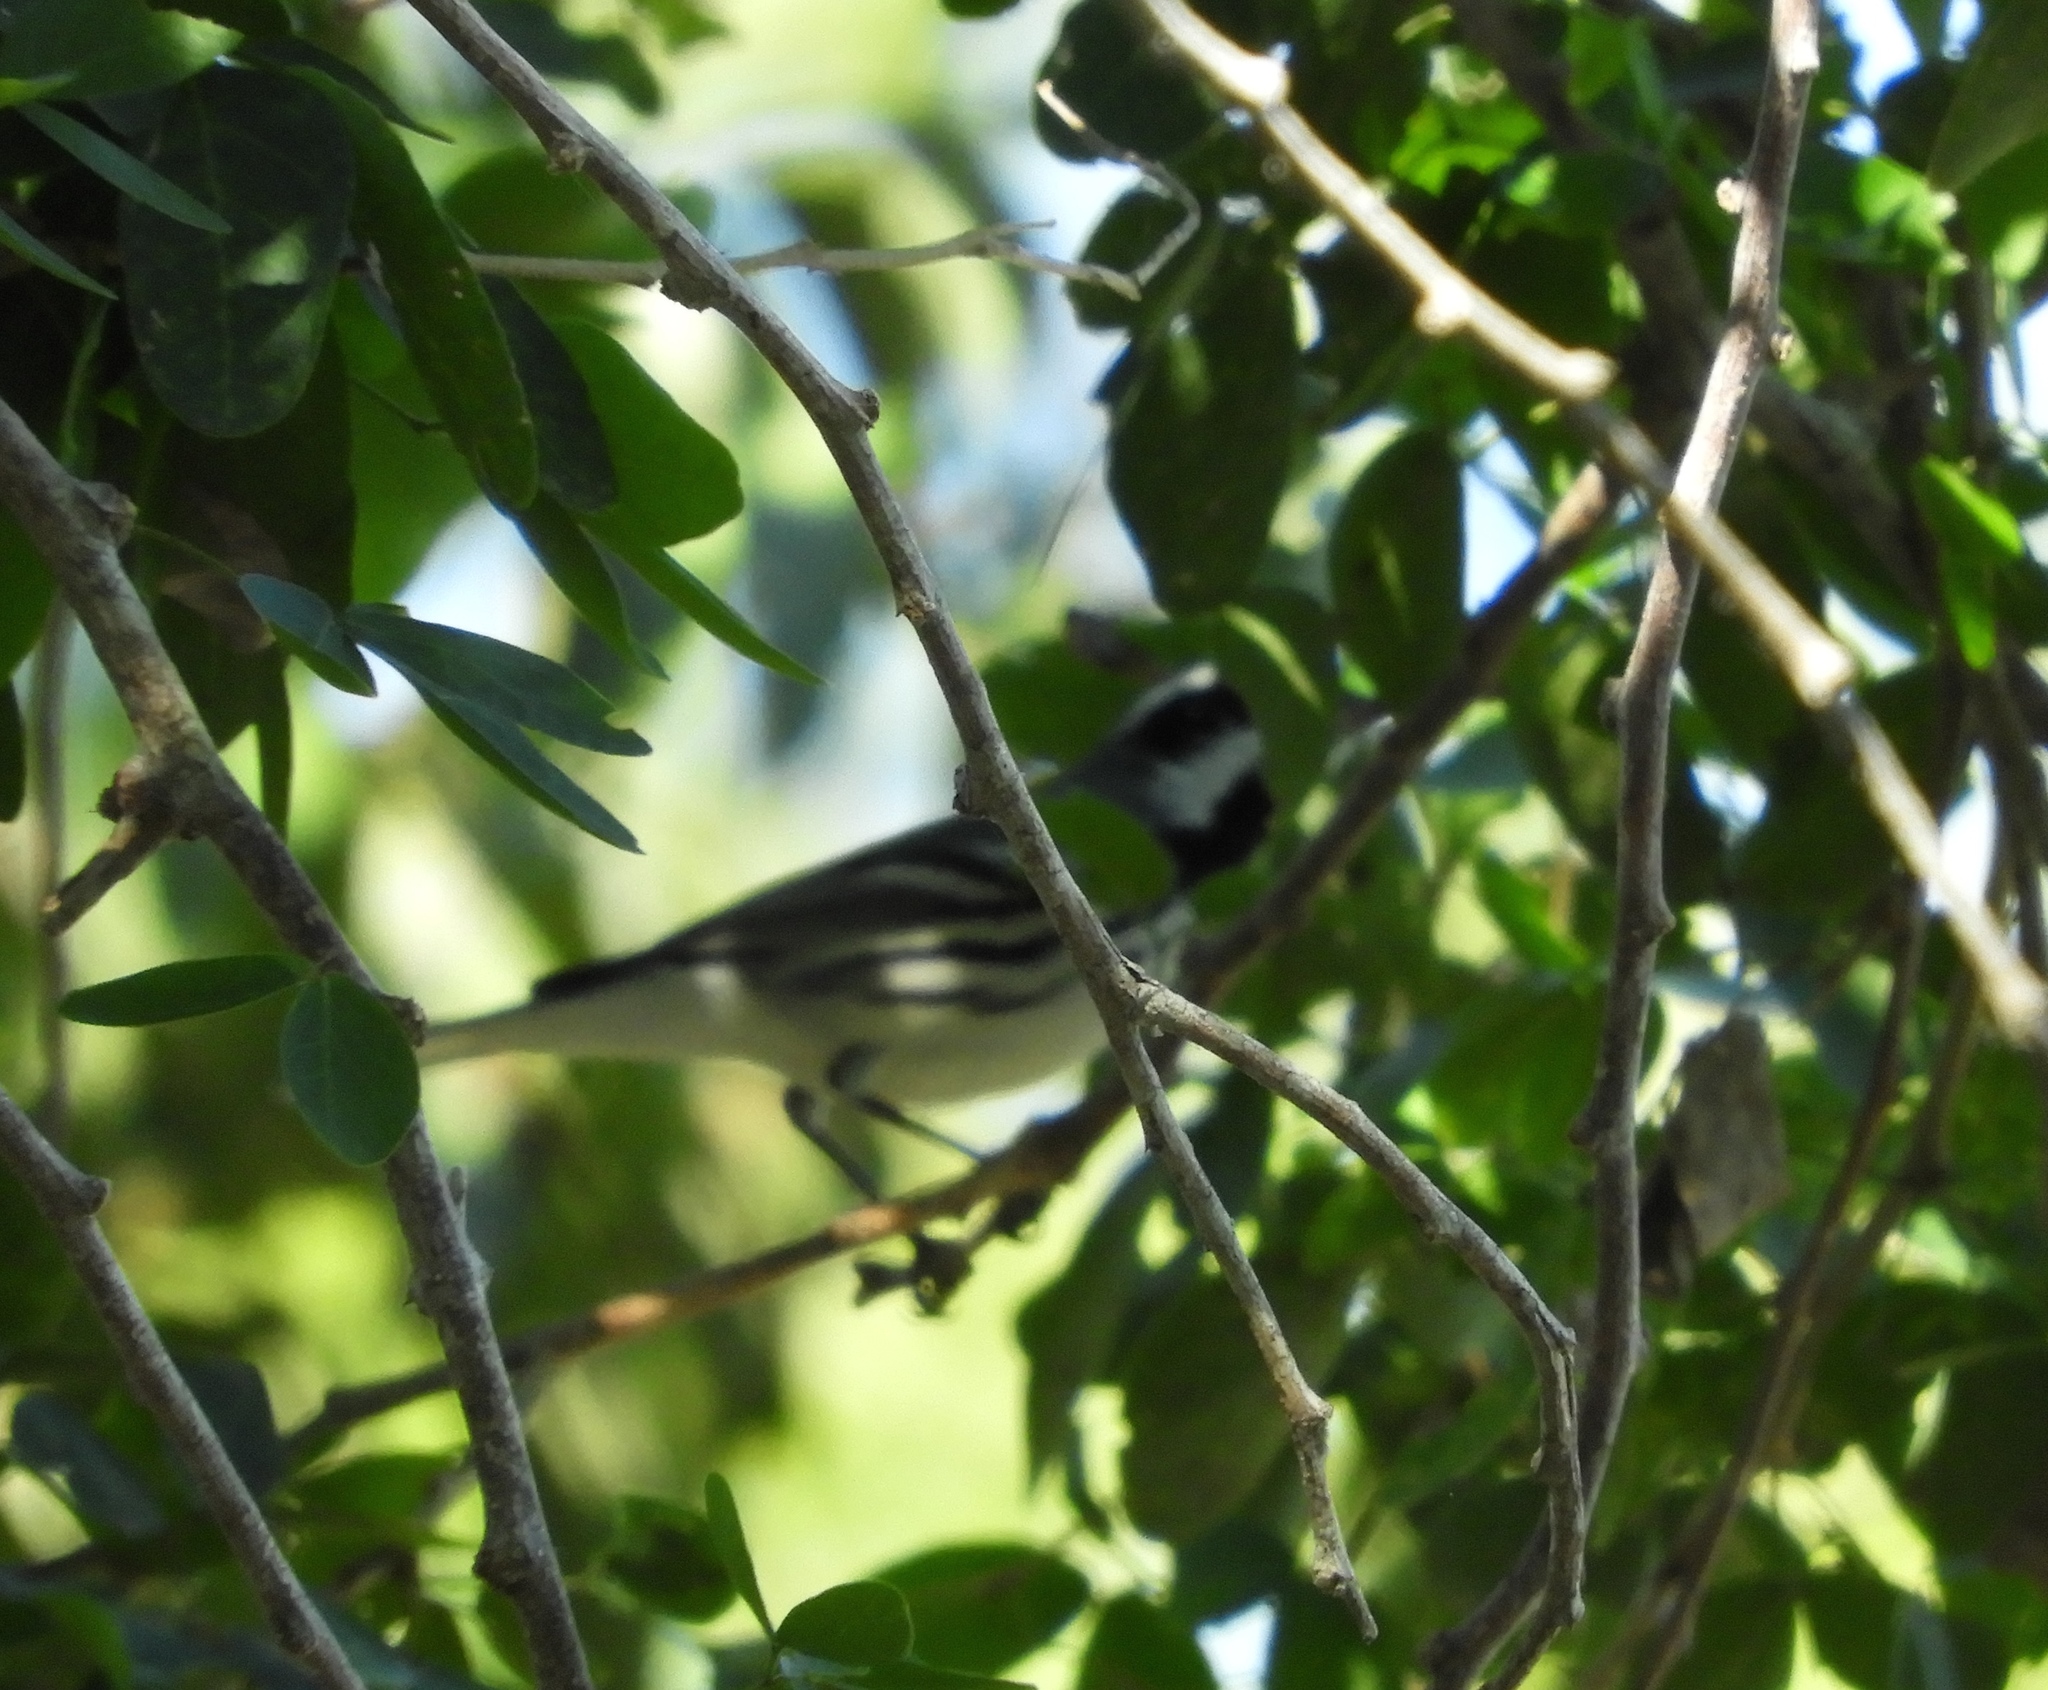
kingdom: Animalia
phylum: Chordata
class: Aves
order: Passeriformes
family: Parulidae
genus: Setophaga
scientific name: Setophaga nigrescens
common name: Black-throated gray warbler
